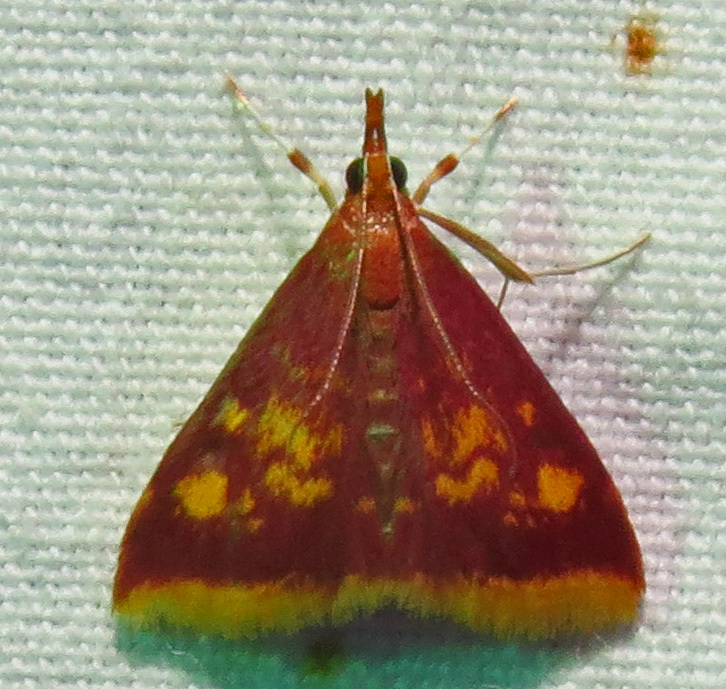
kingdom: Animalia
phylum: Arthropoda
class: Insecta
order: Lepidoptera
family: Crambidae
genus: Pyrausta
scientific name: Pyrausta acrionalis
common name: Mint-loving pyrausta moth
